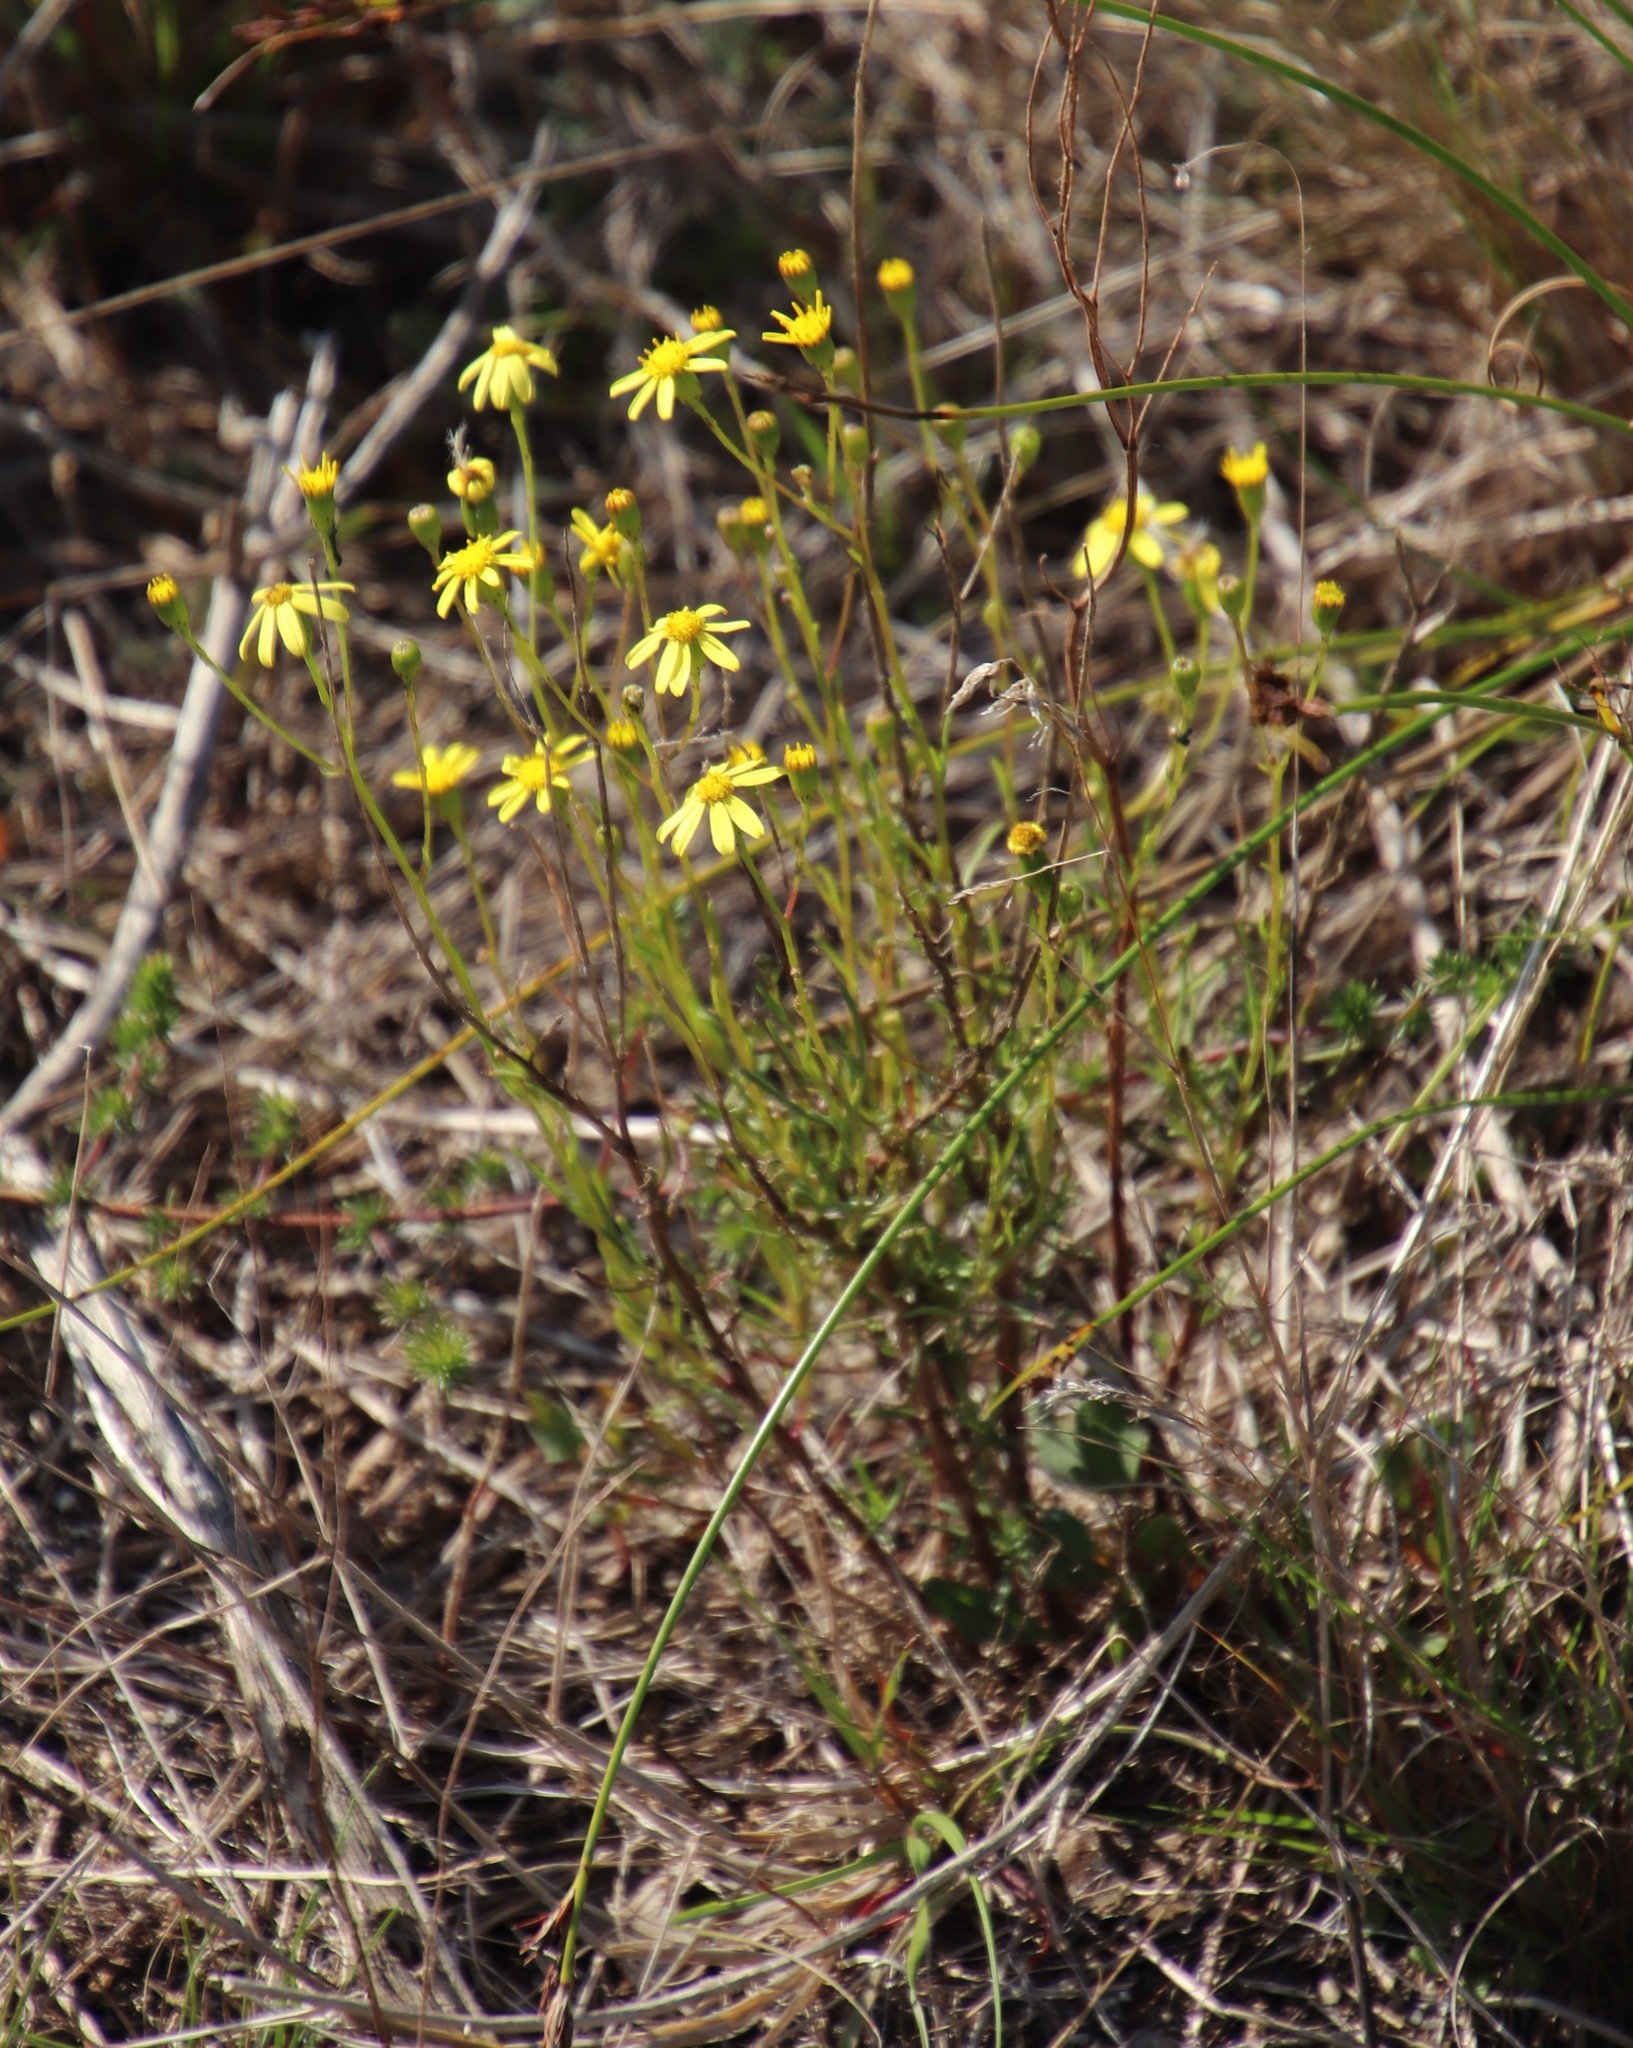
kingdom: Plantae
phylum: Tracheophyta
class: Magnoliopsida
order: Asterales
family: Asteraceae
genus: Senecio
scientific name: Senecio burchellii
